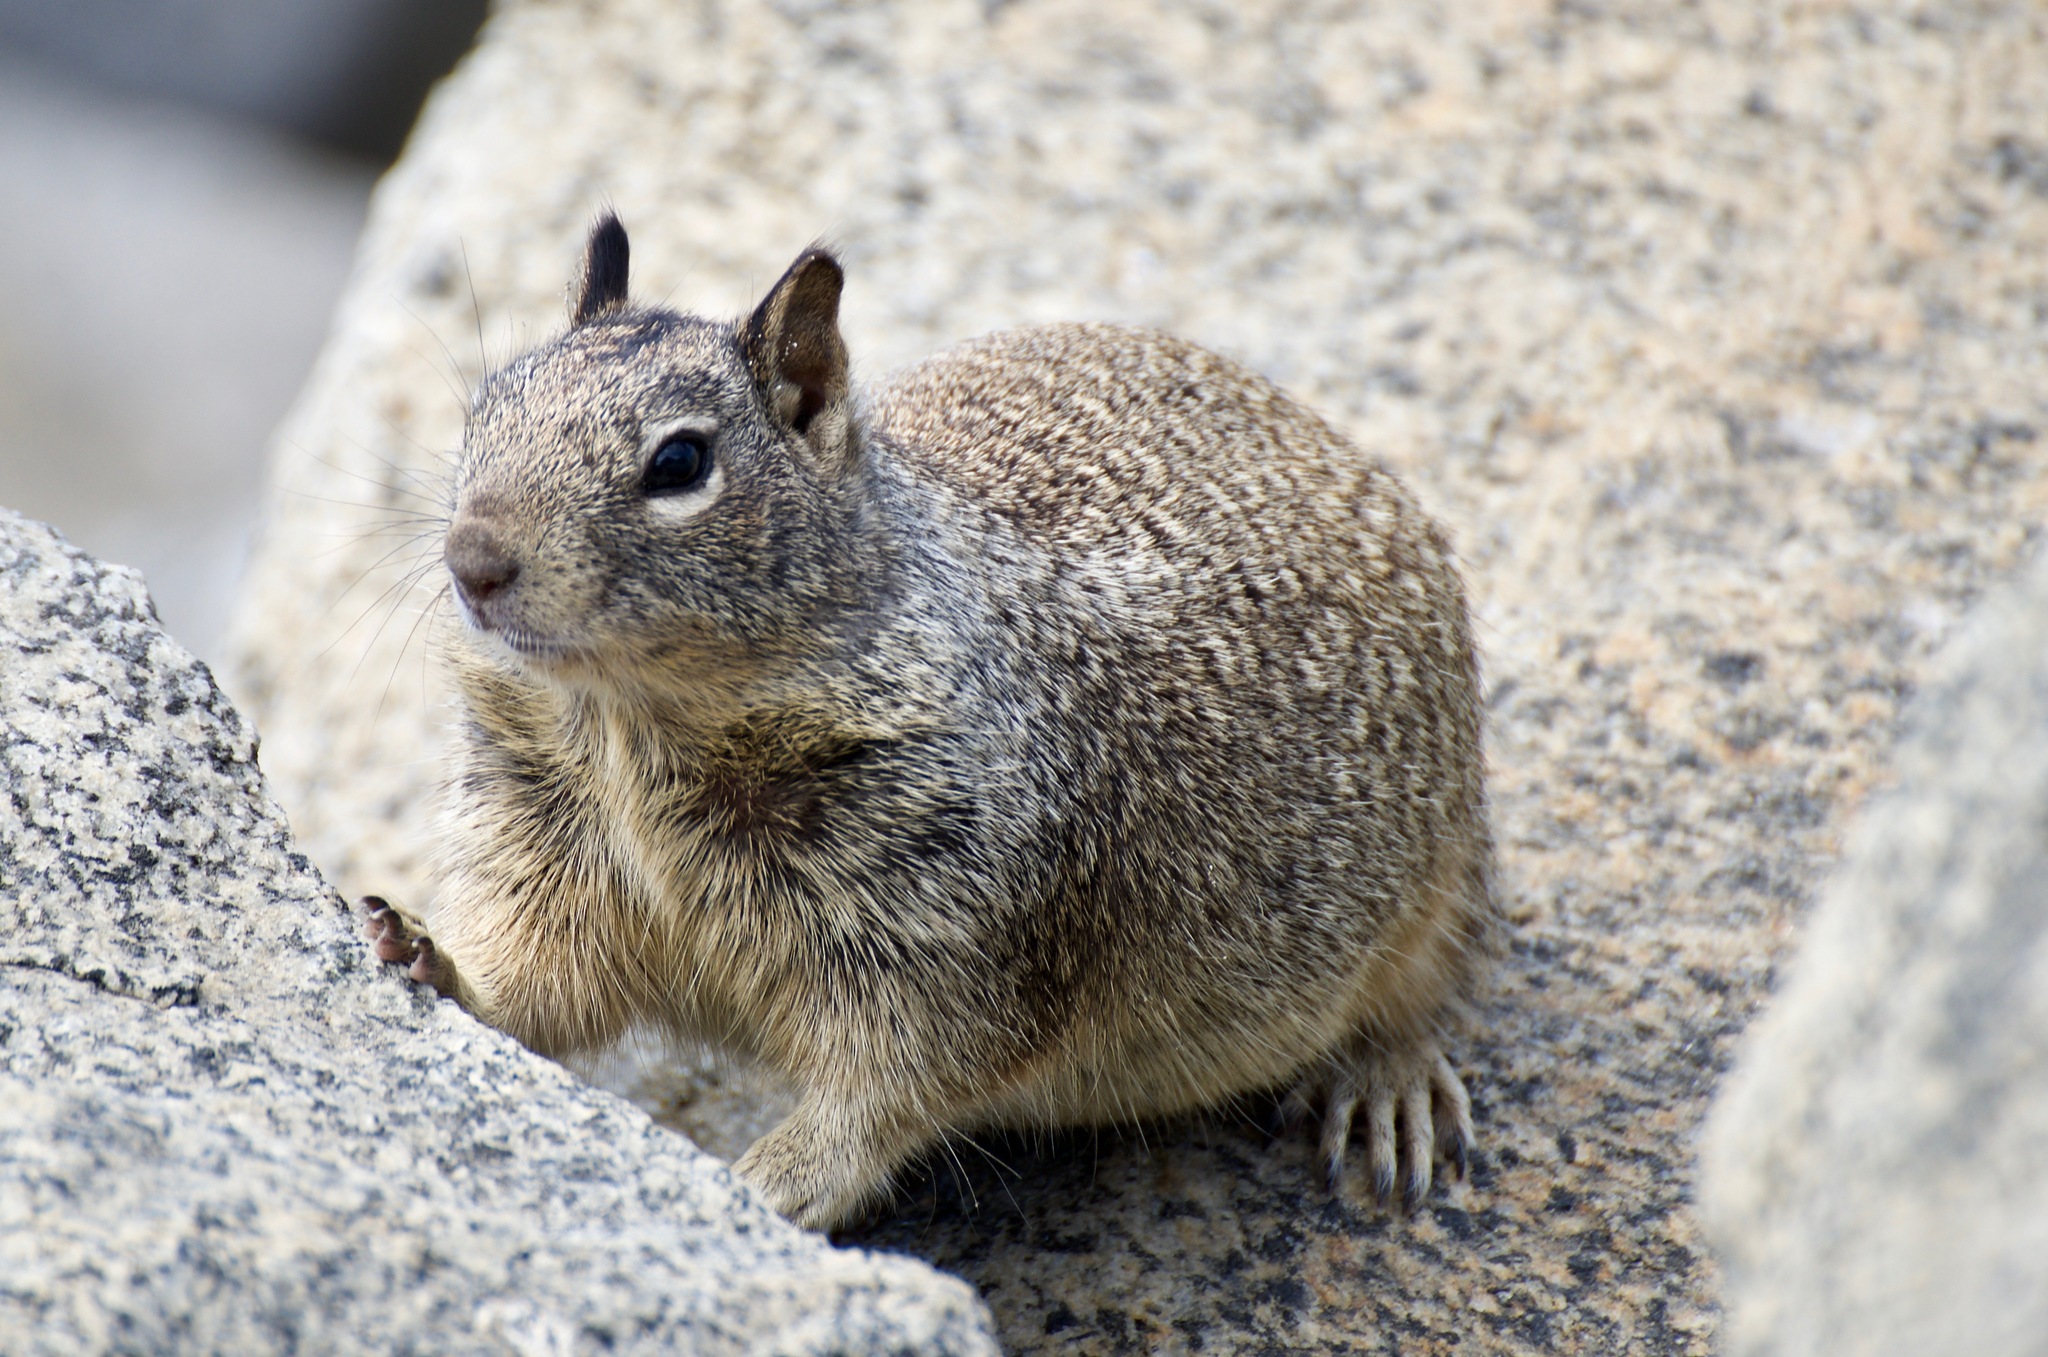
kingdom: Animalia
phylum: Chordata
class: Mammalia
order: Rodentia
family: Sciuridae
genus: Otospermophilus
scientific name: Otospermophilus beecheyi
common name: California ground squirrel
